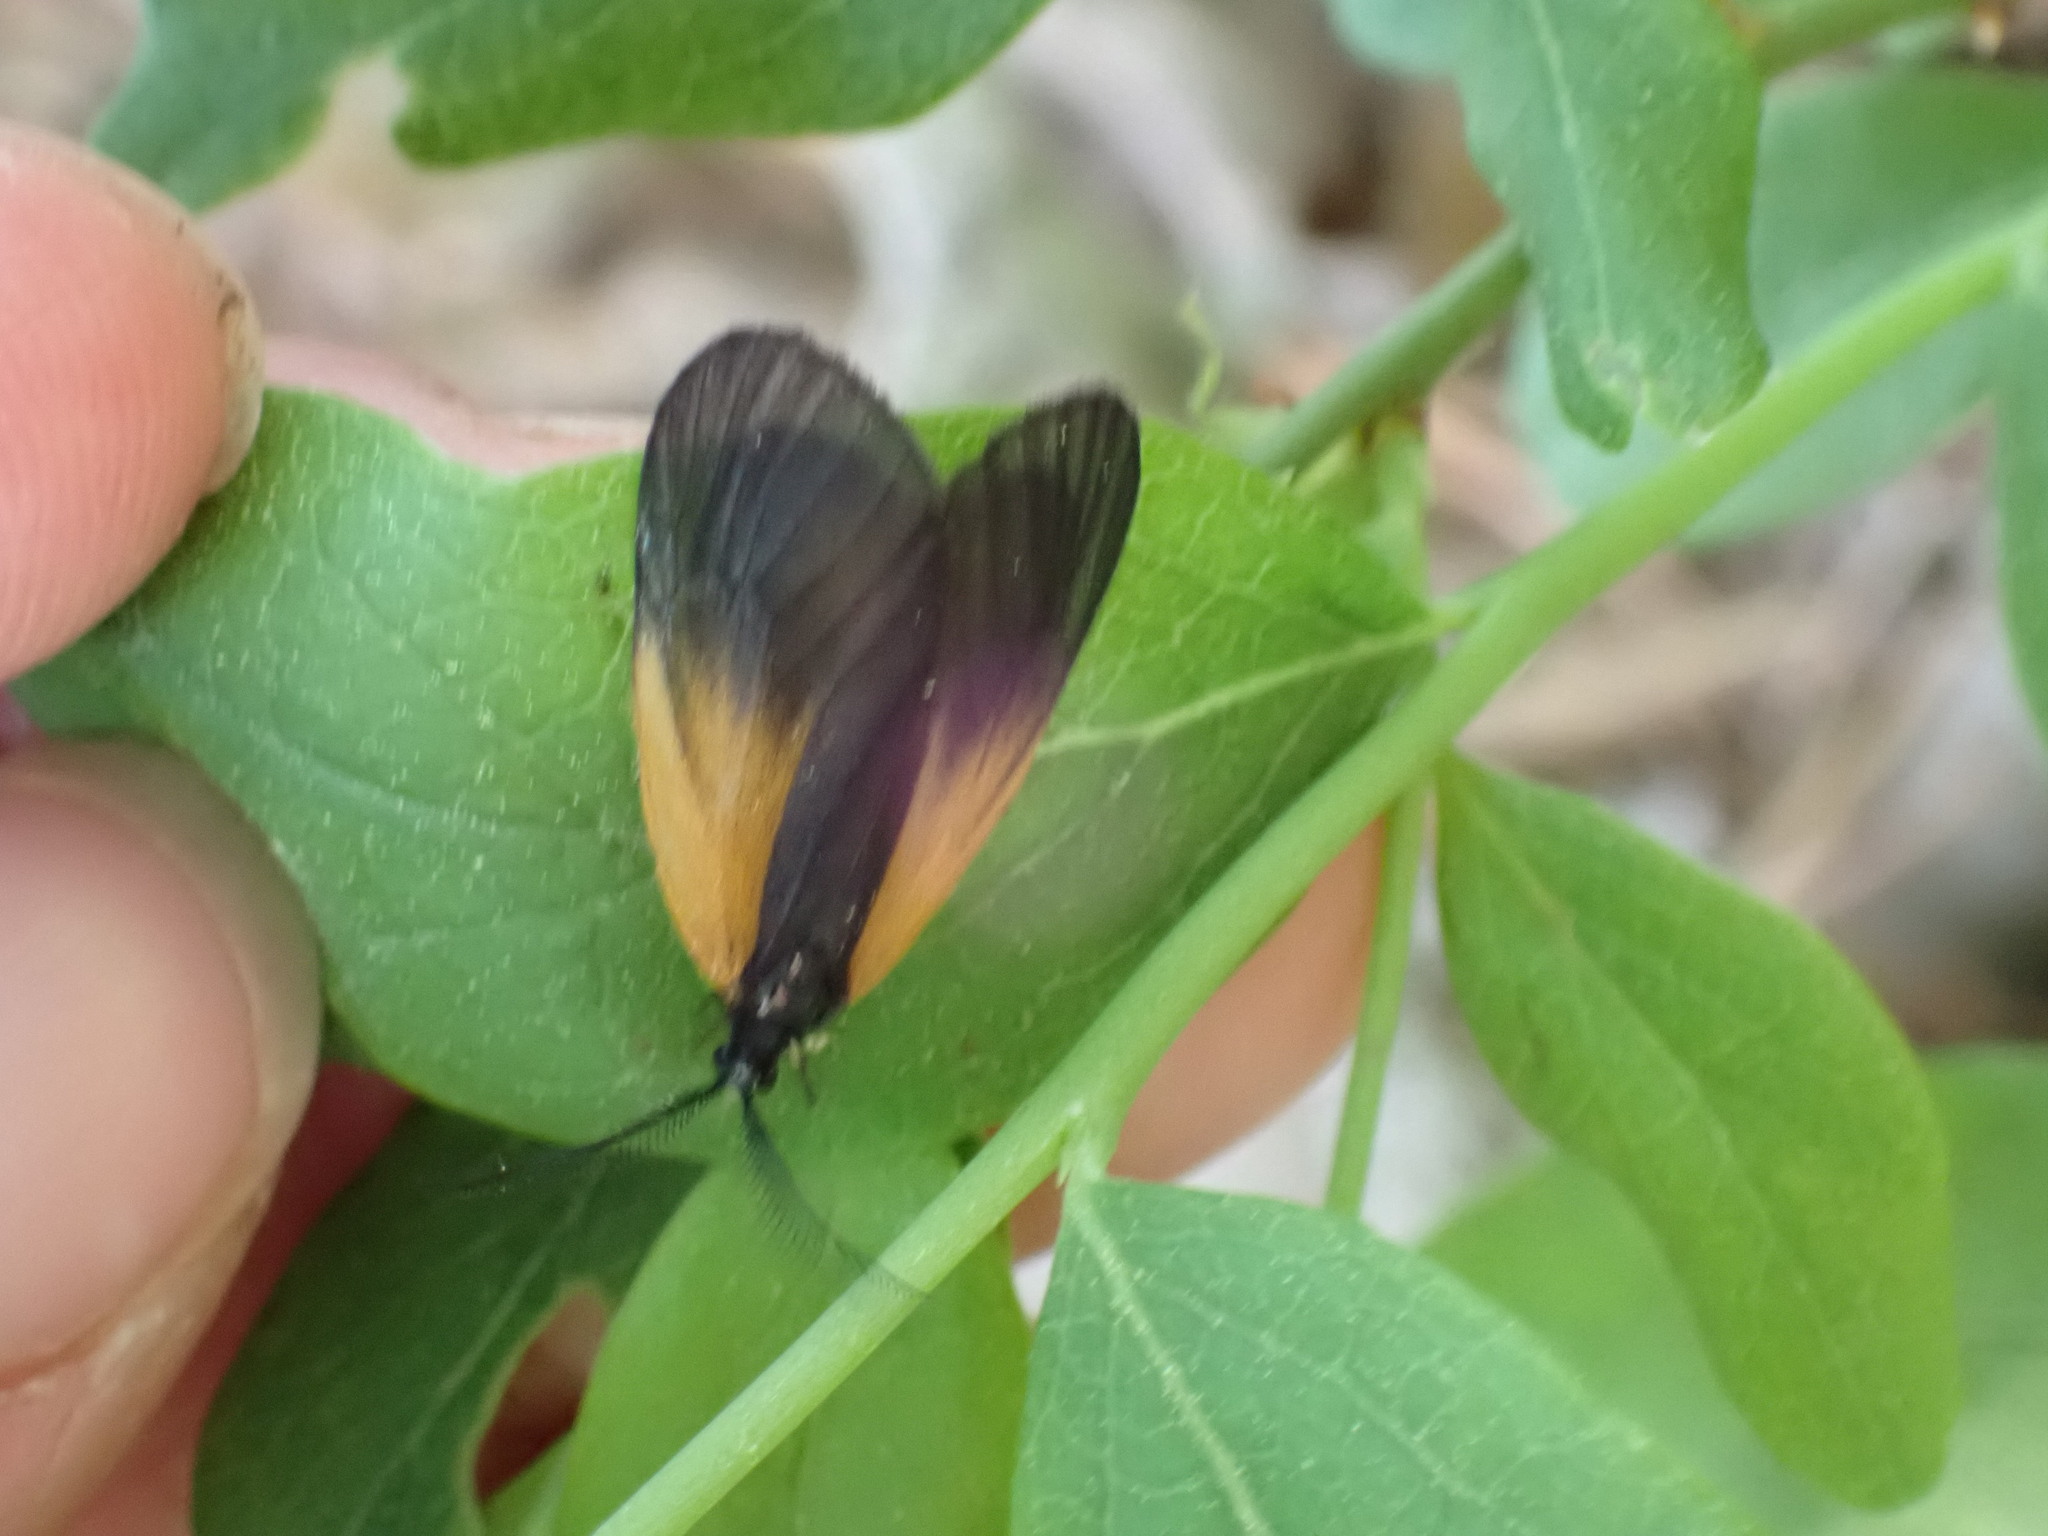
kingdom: Animalia
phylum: Arthropoda
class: Insecta
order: Lepidoptera
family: Zygaenidae
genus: Malthaca
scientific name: Malthaca dimidiata
